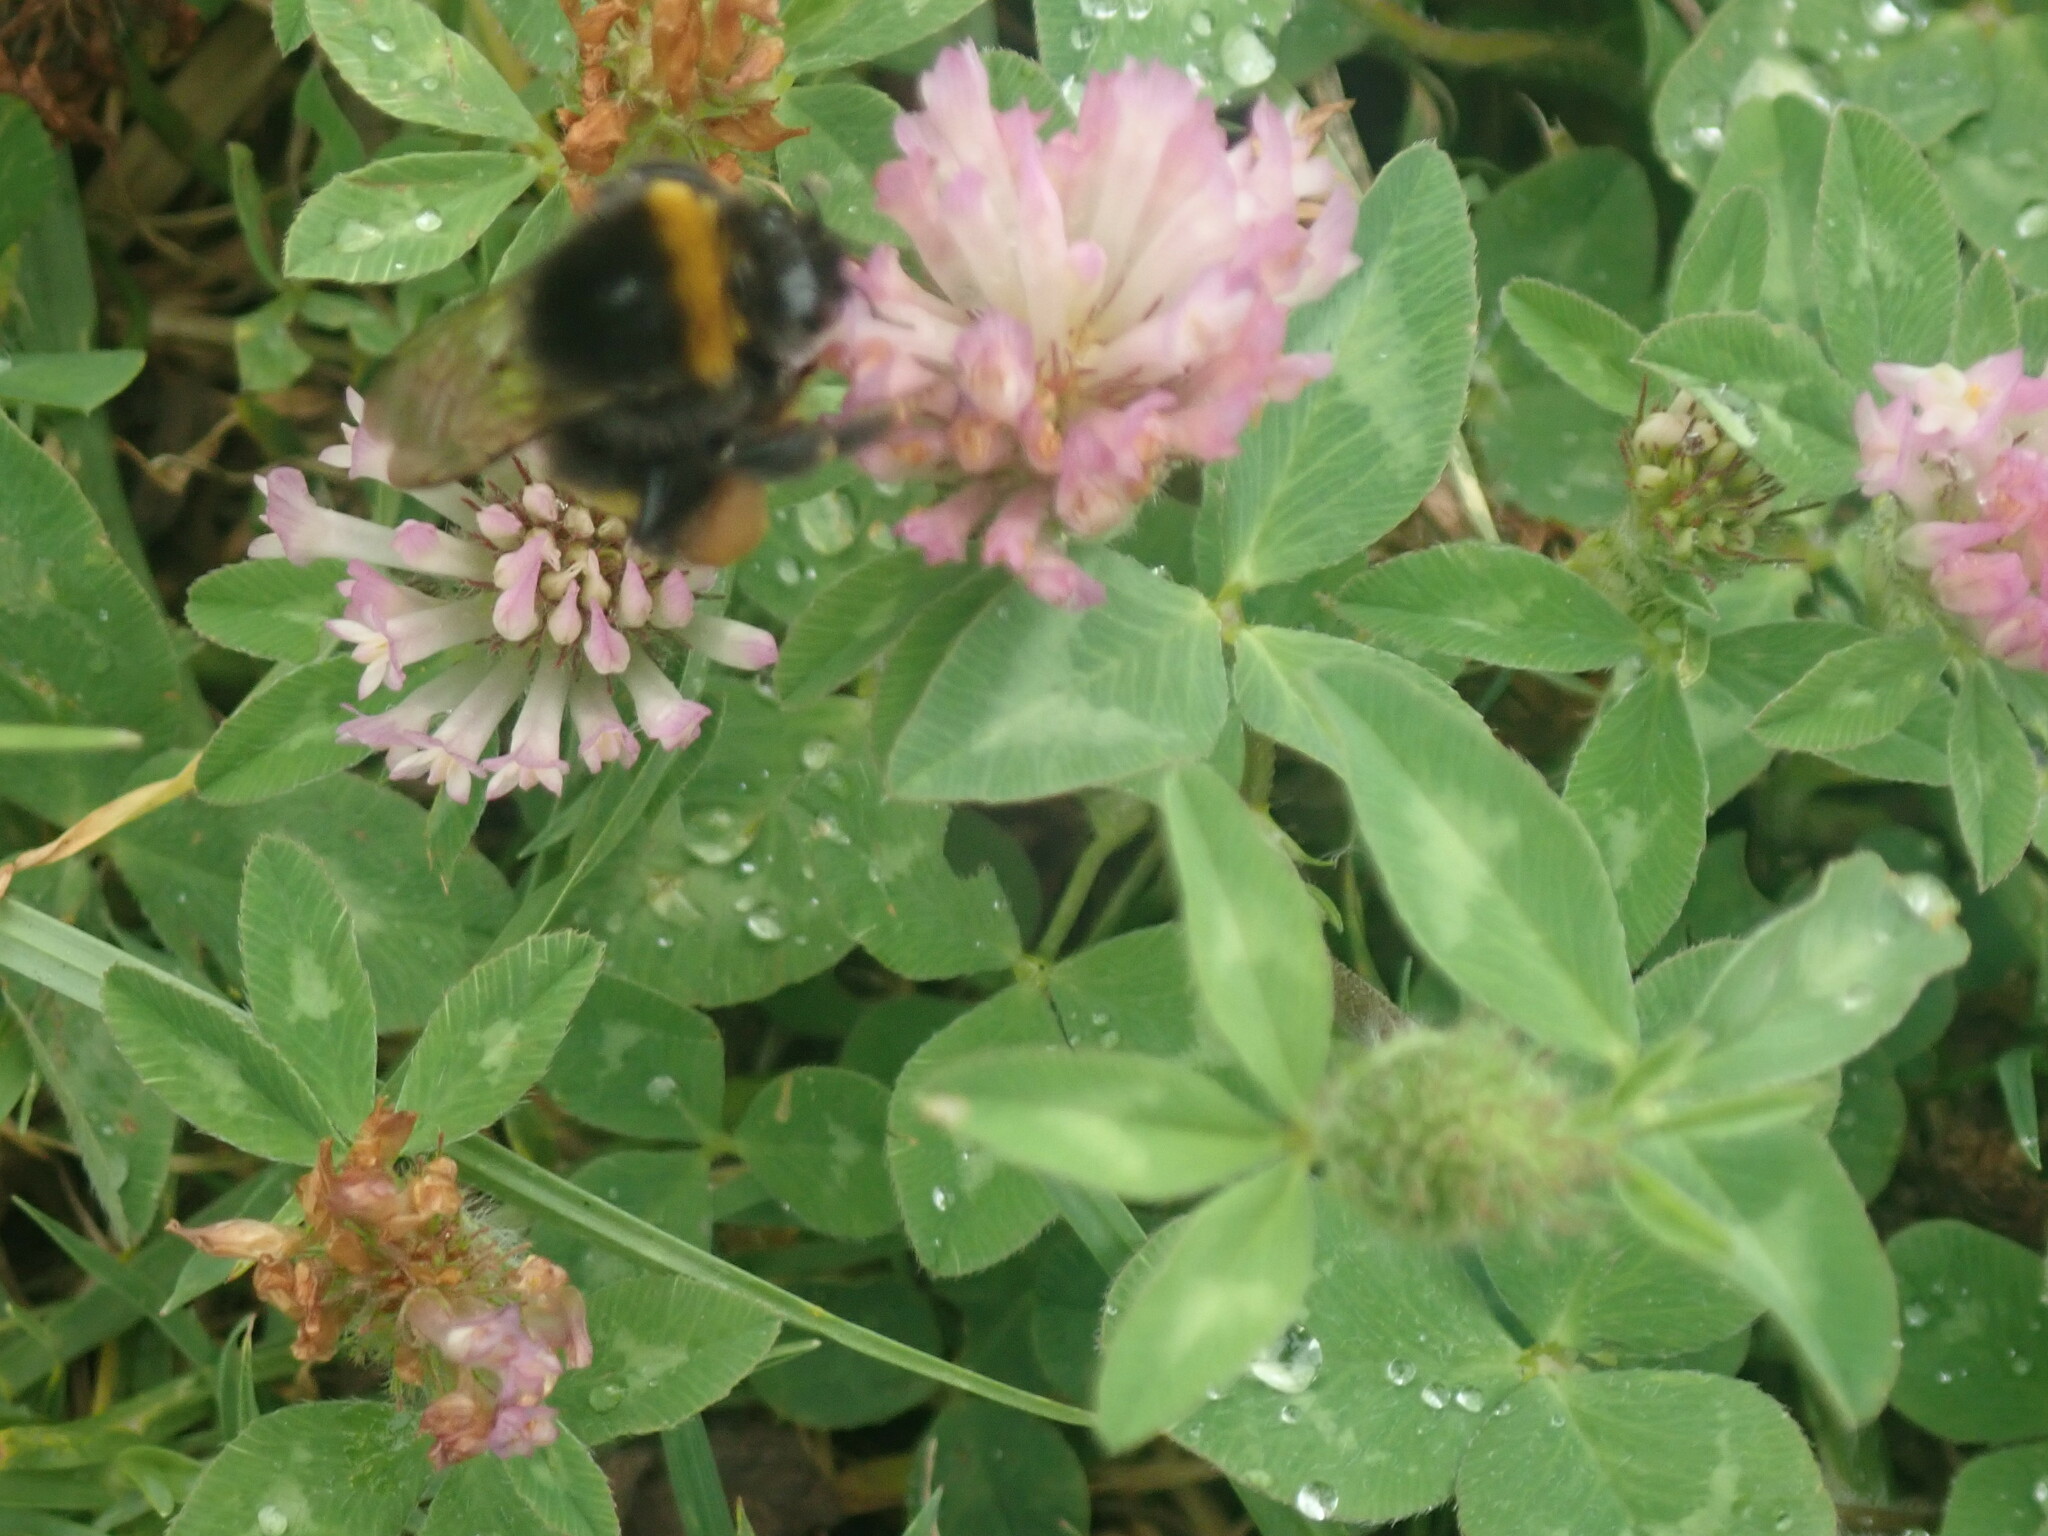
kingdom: Plantae
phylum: Tracheophyta
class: Magnoliopsida
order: Fabales
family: Fabaceae
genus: Trifolium
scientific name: Trifolium pratense
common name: Red clover
